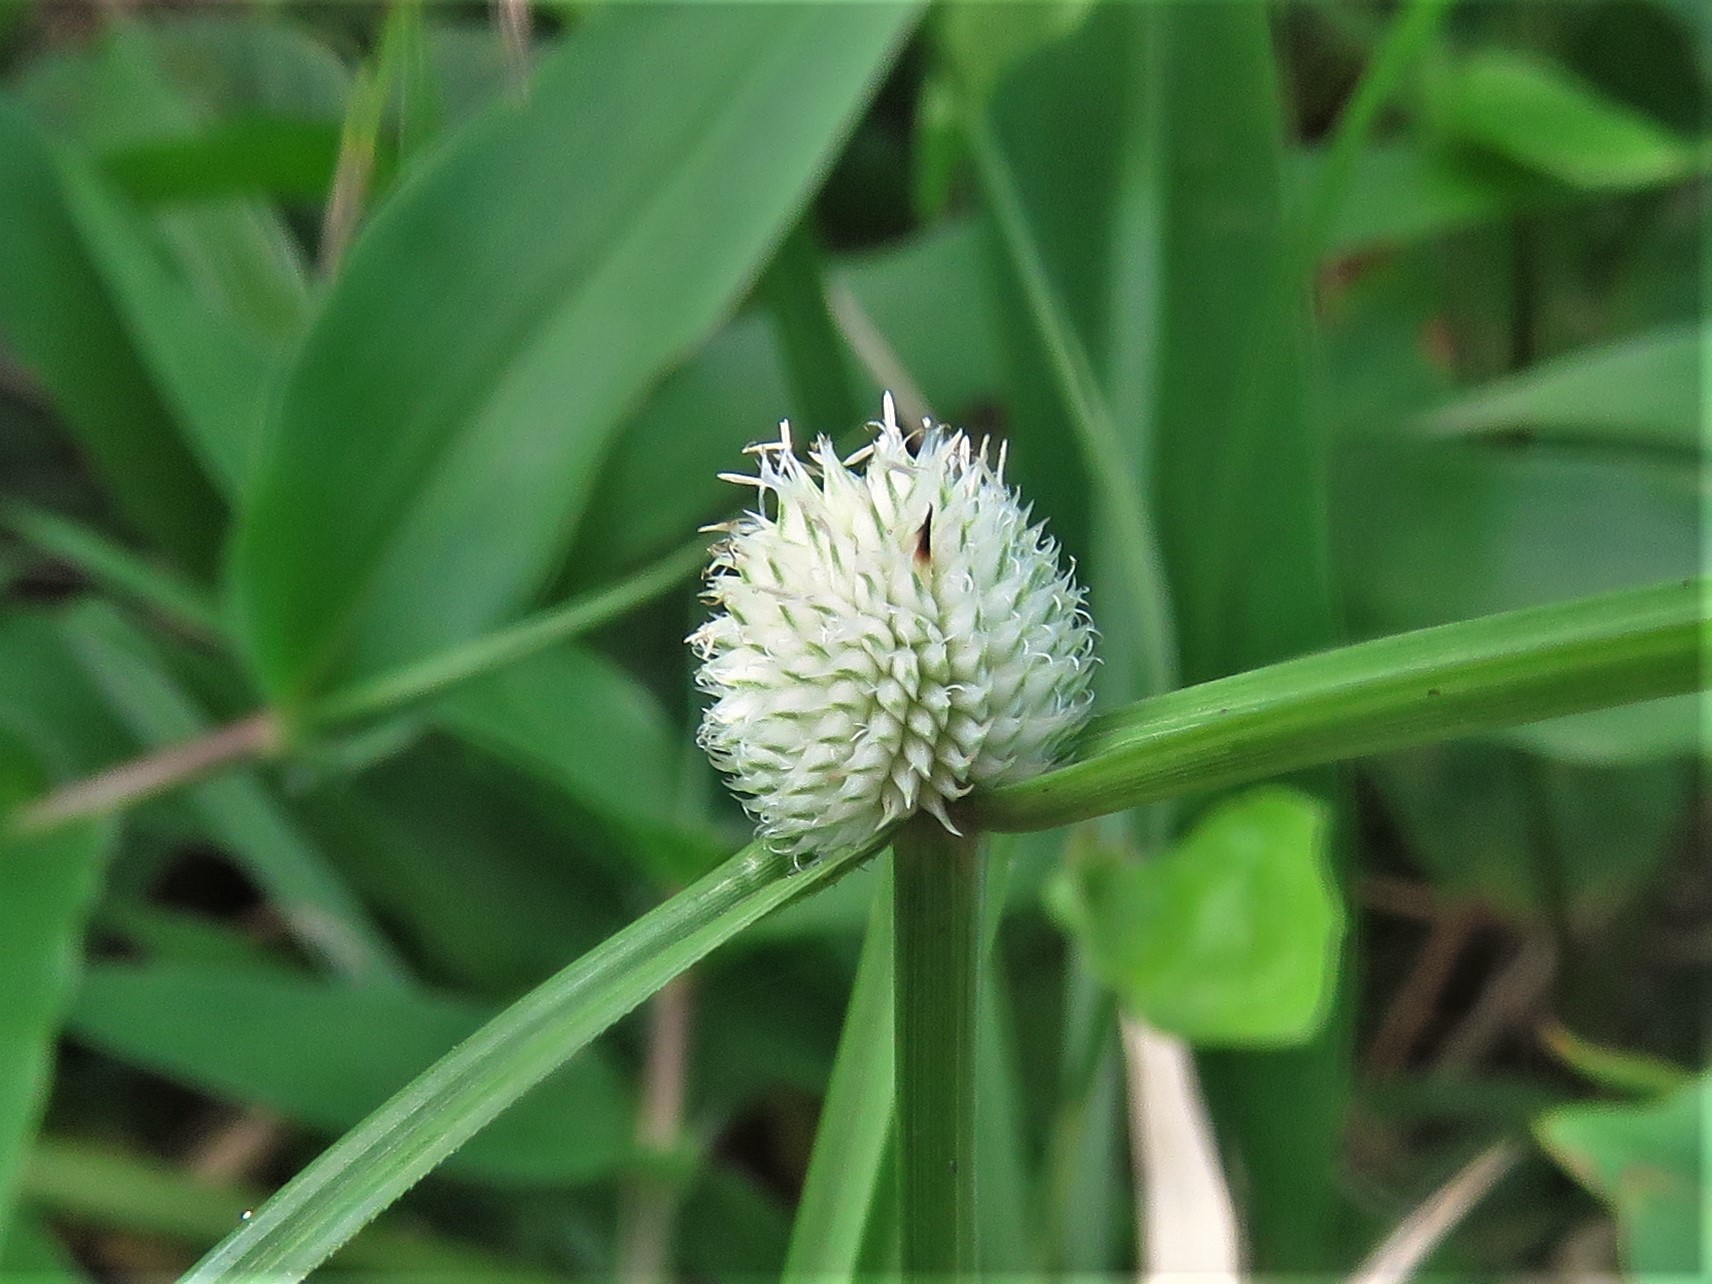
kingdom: Plantae
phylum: Tracheophyta
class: Liliopsida
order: Poales
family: Cyperaceae
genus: Cyperus
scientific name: Cyperus mindorensis
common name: Flatsedge
